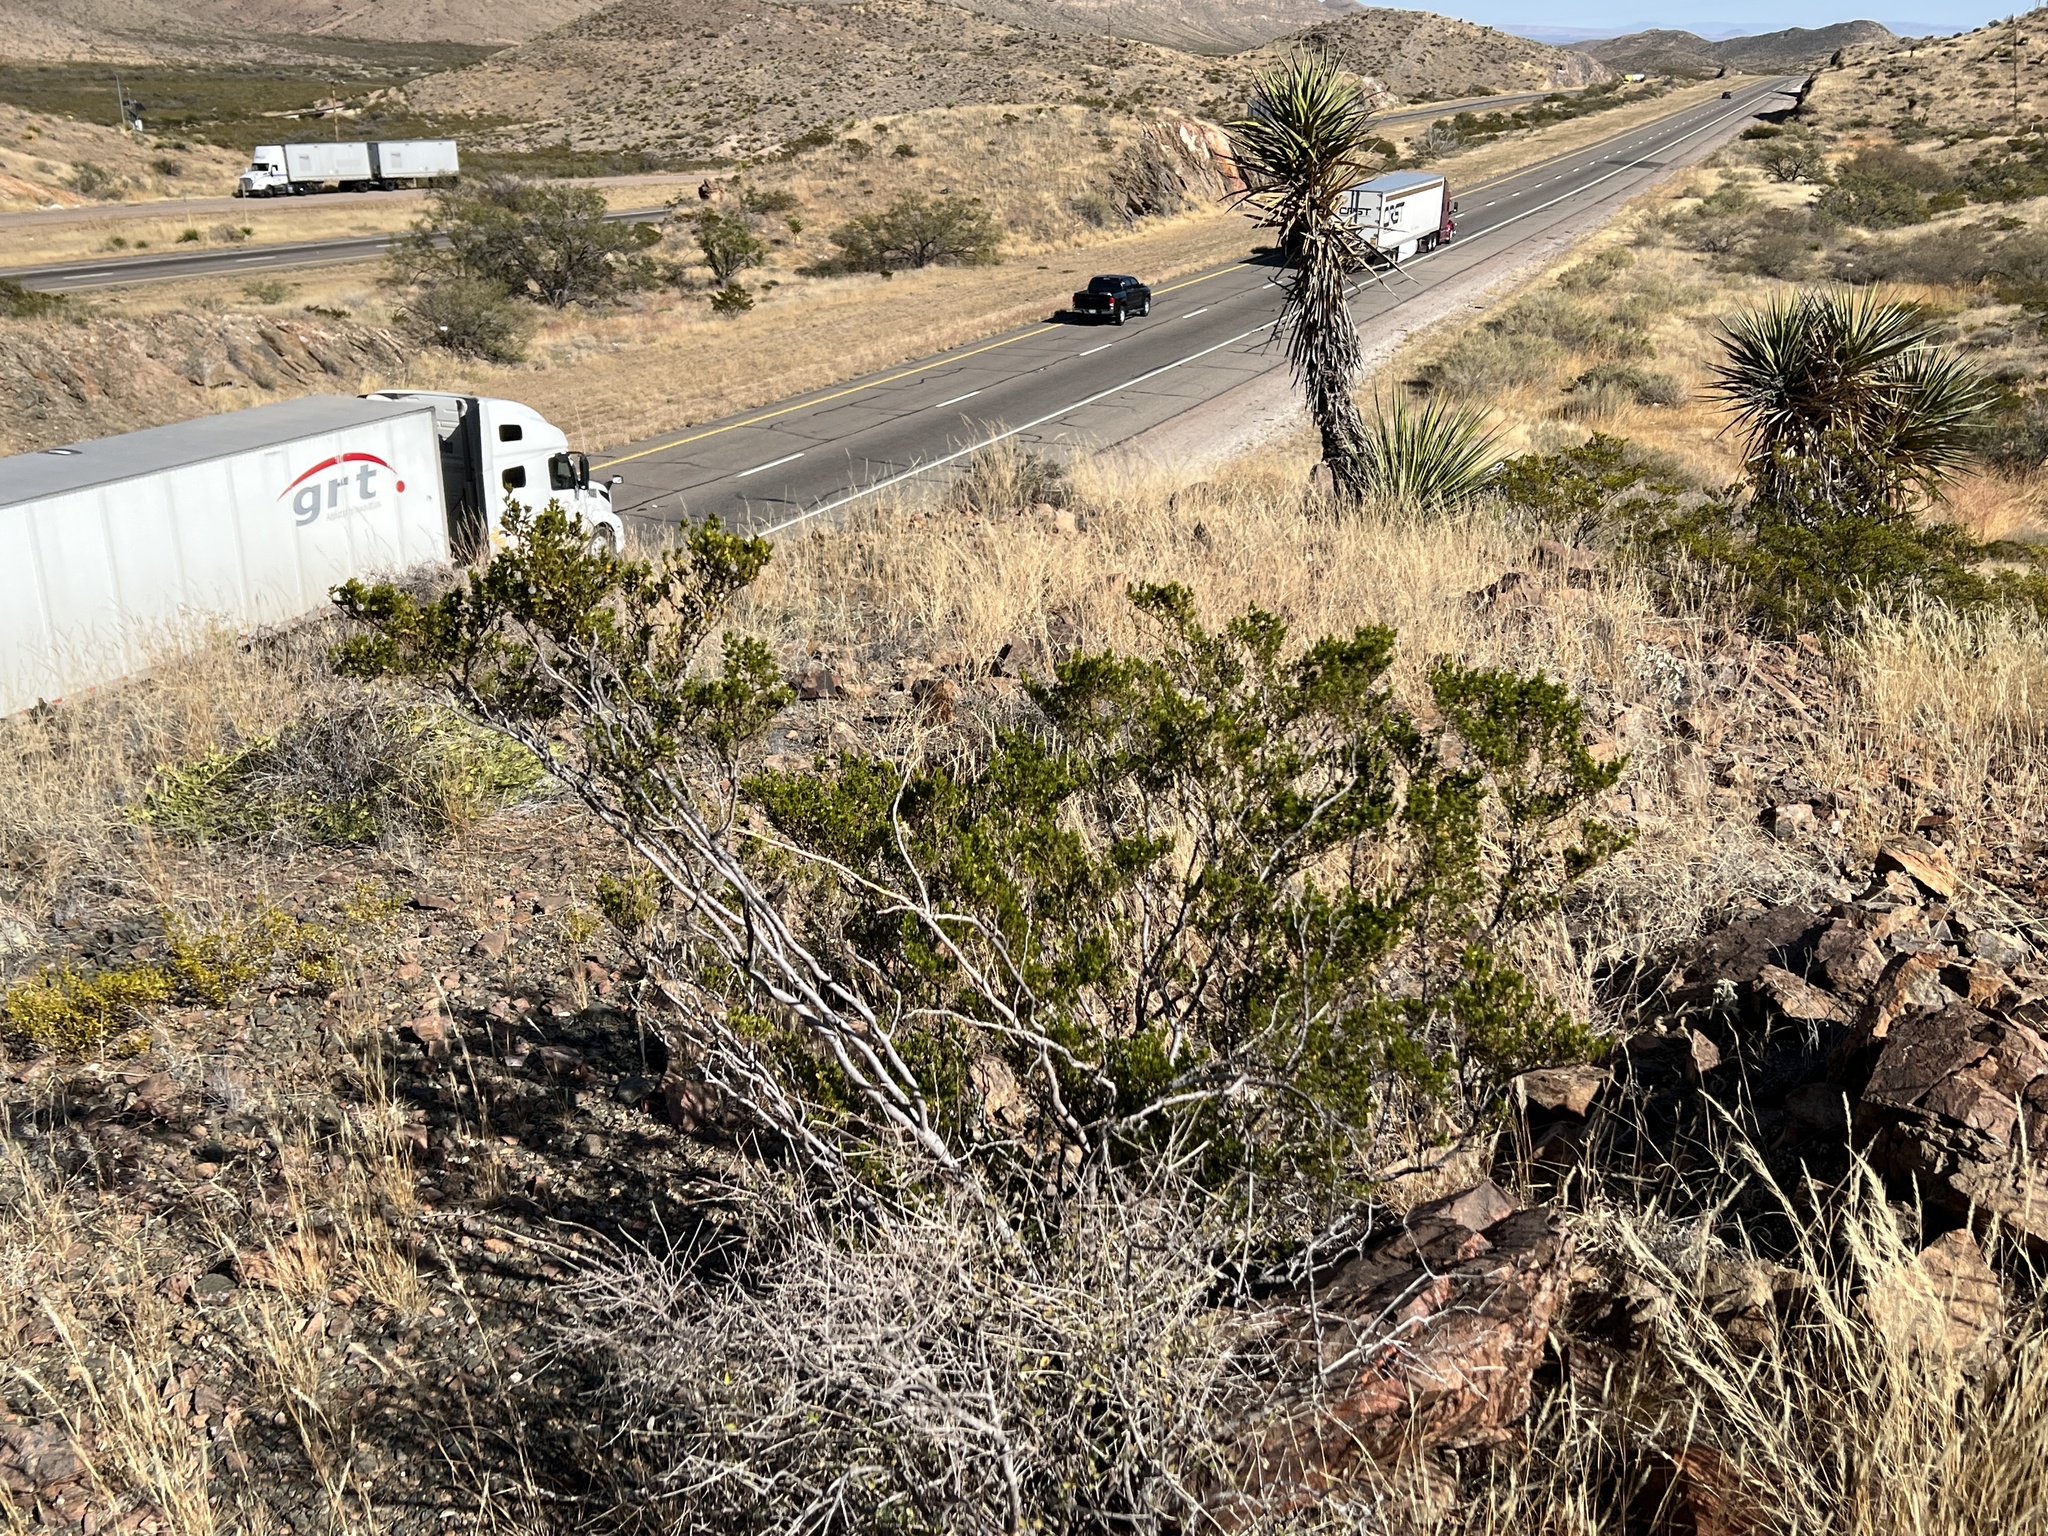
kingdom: Plantae
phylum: Tracheophyta
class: Magnoliopsida
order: Zygophyllales
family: Zygophyllaceae
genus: Larrea
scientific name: Larrea tridentata
